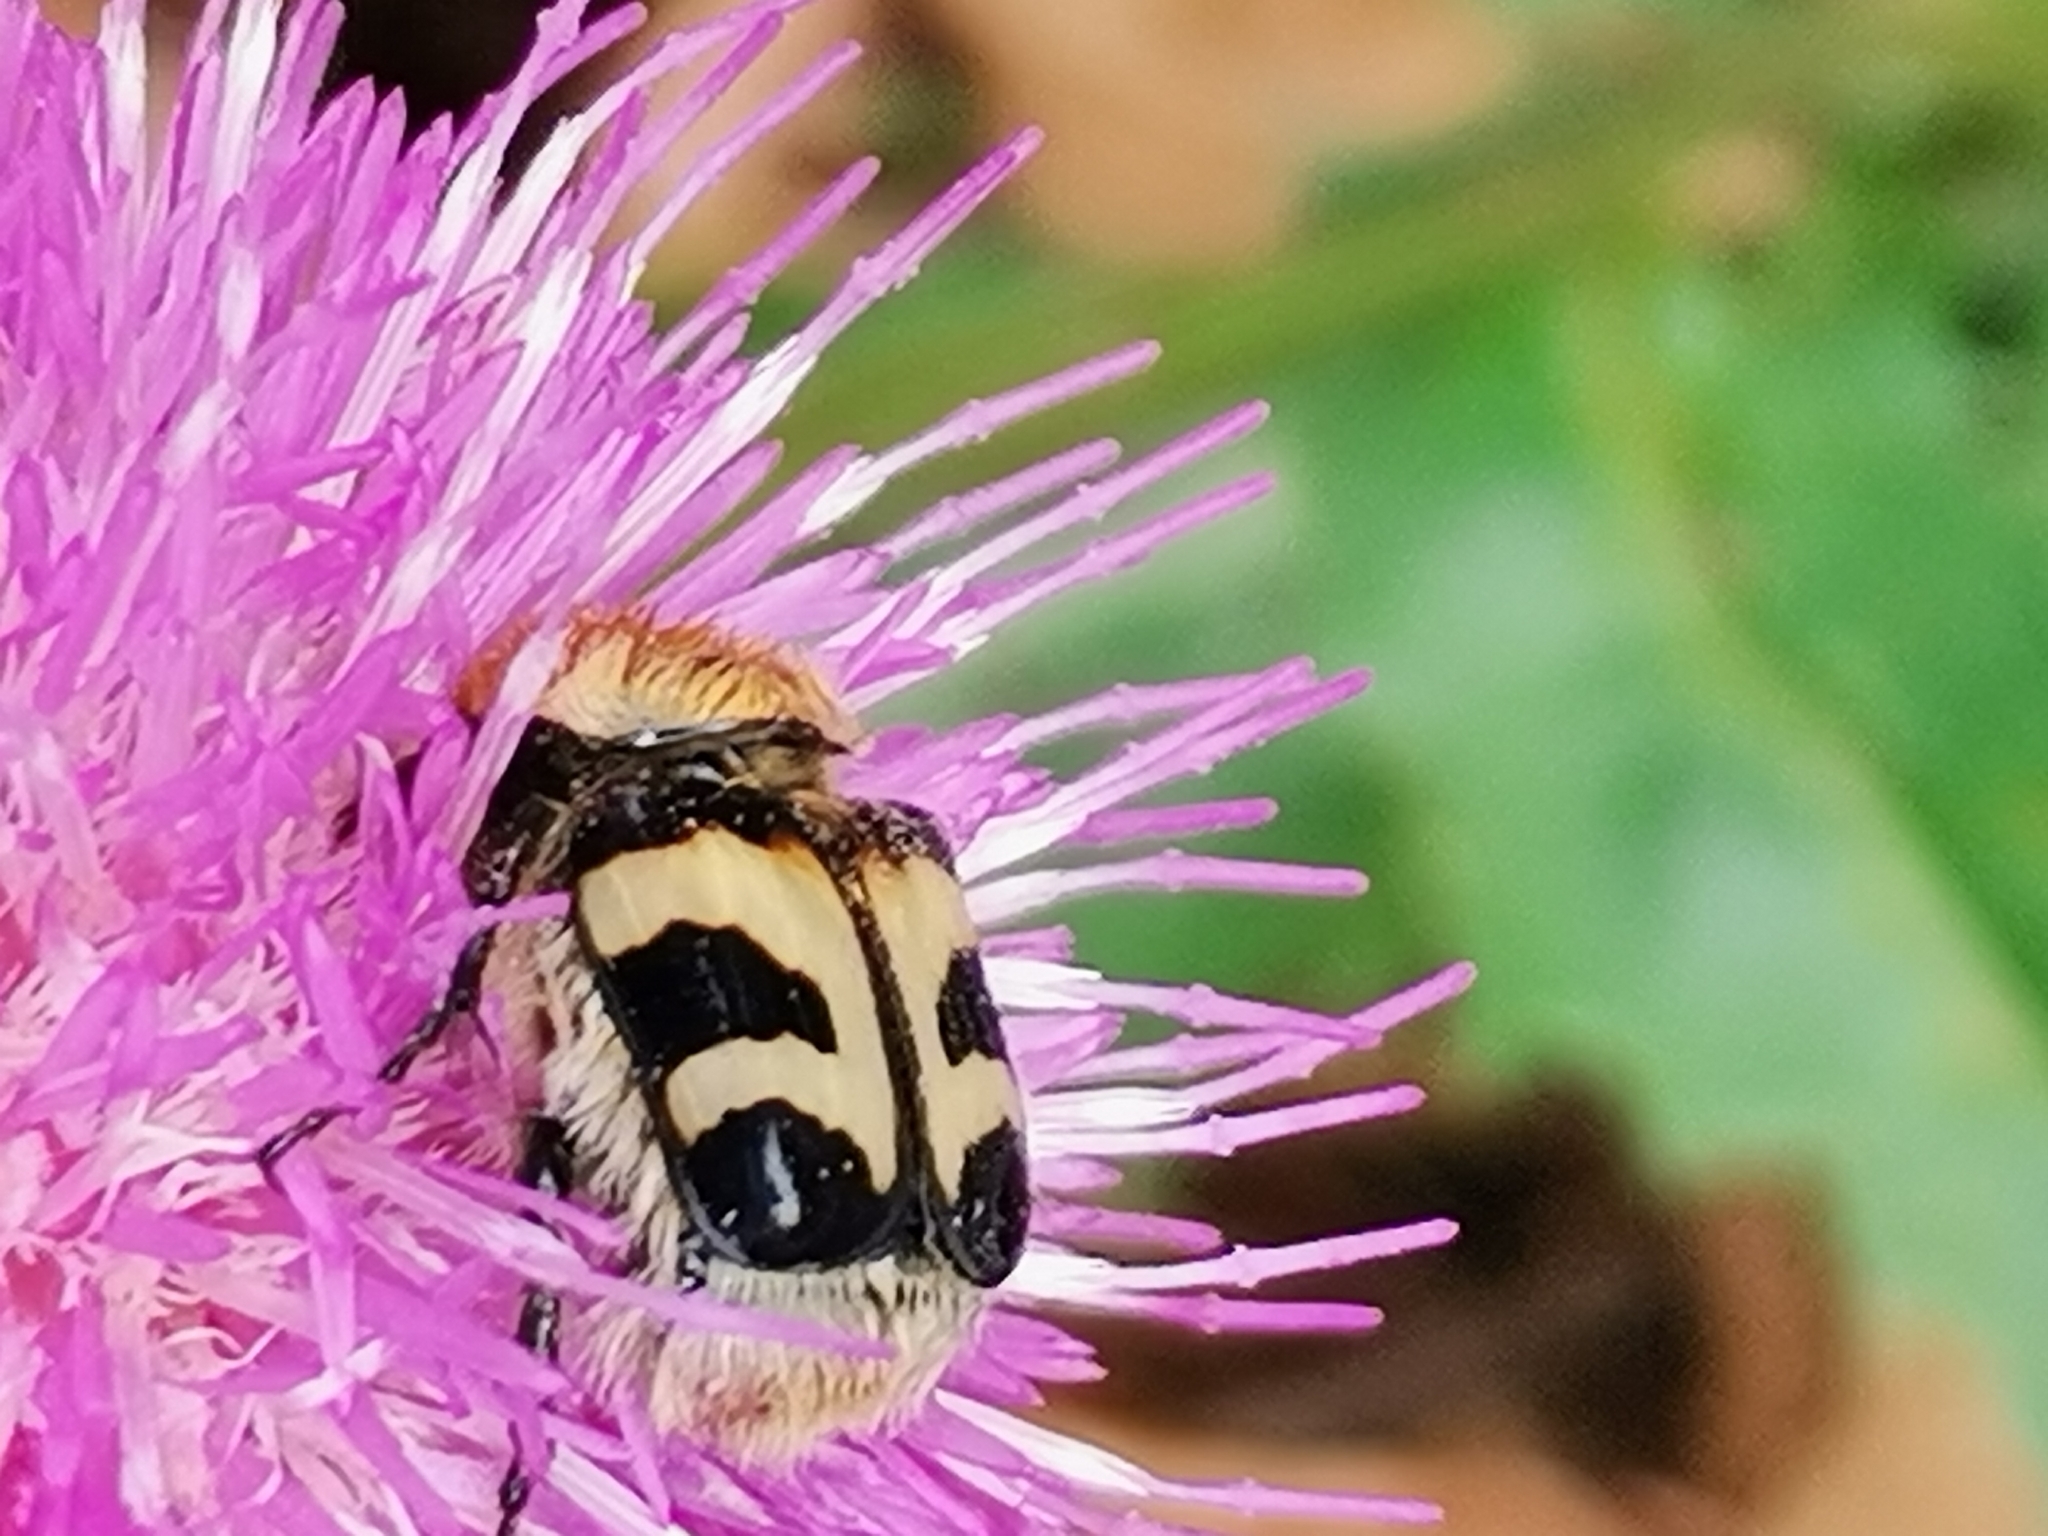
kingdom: Animalia
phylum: Arthropoda
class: Insecta
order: Coleoptera
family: Scarabaeidae
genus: Trichius
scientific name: Trichius fasciatus
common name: Bee beetle
